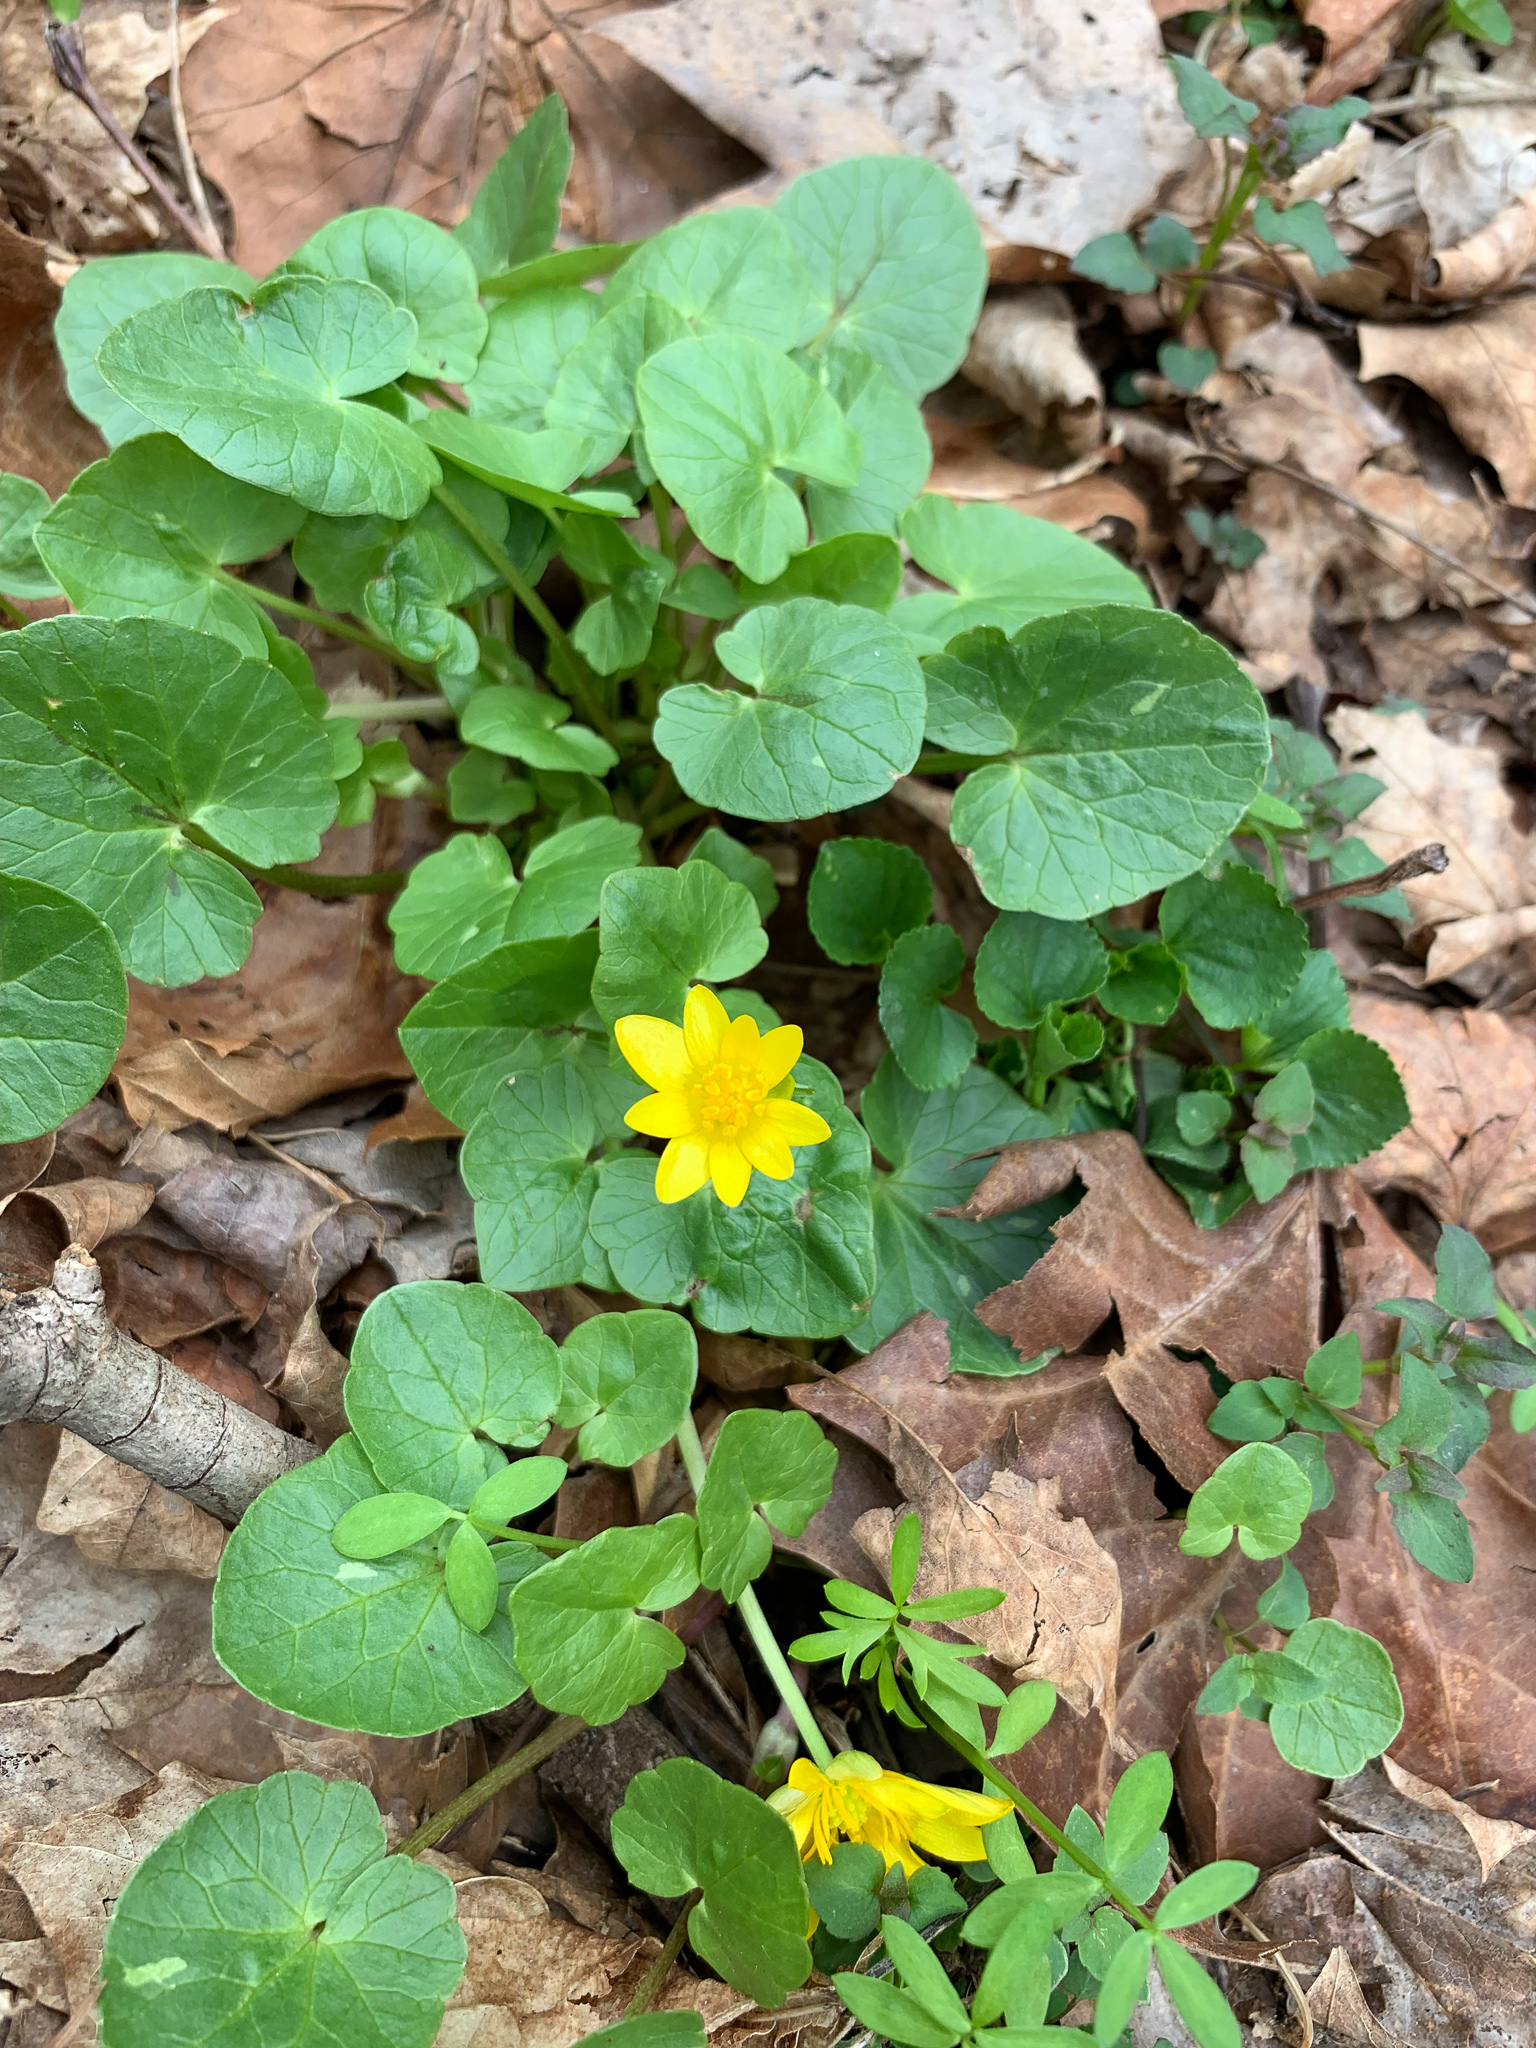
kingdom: Plantae
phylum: Tracheophyta
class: Magnoliopsida
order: Ranunculales
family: Ranunculaceae
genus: Ficaria
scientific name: Ficaria verna
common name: Lesser celandine
